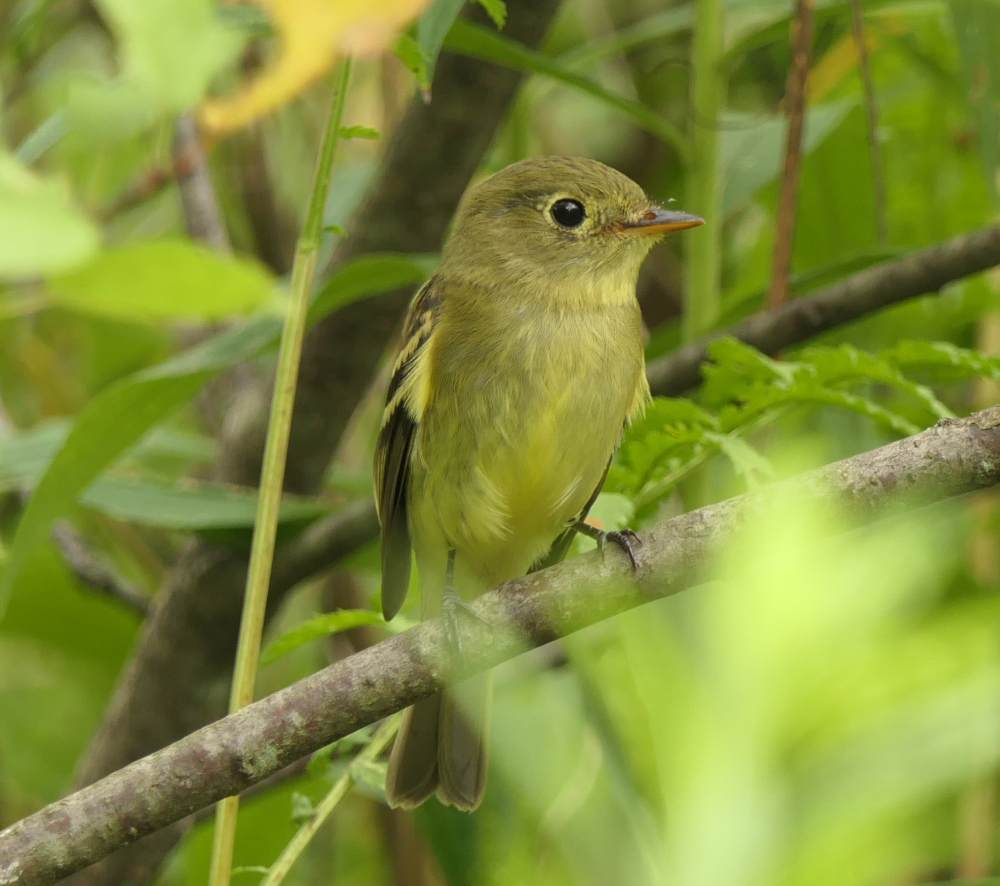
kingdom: Animalia
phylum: Chordata
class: Aves
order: Passeriformes
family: Tyrannidae
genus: Empidonax
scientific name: Empidonax flaviventris
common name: Yellow-bellied flycatcher
